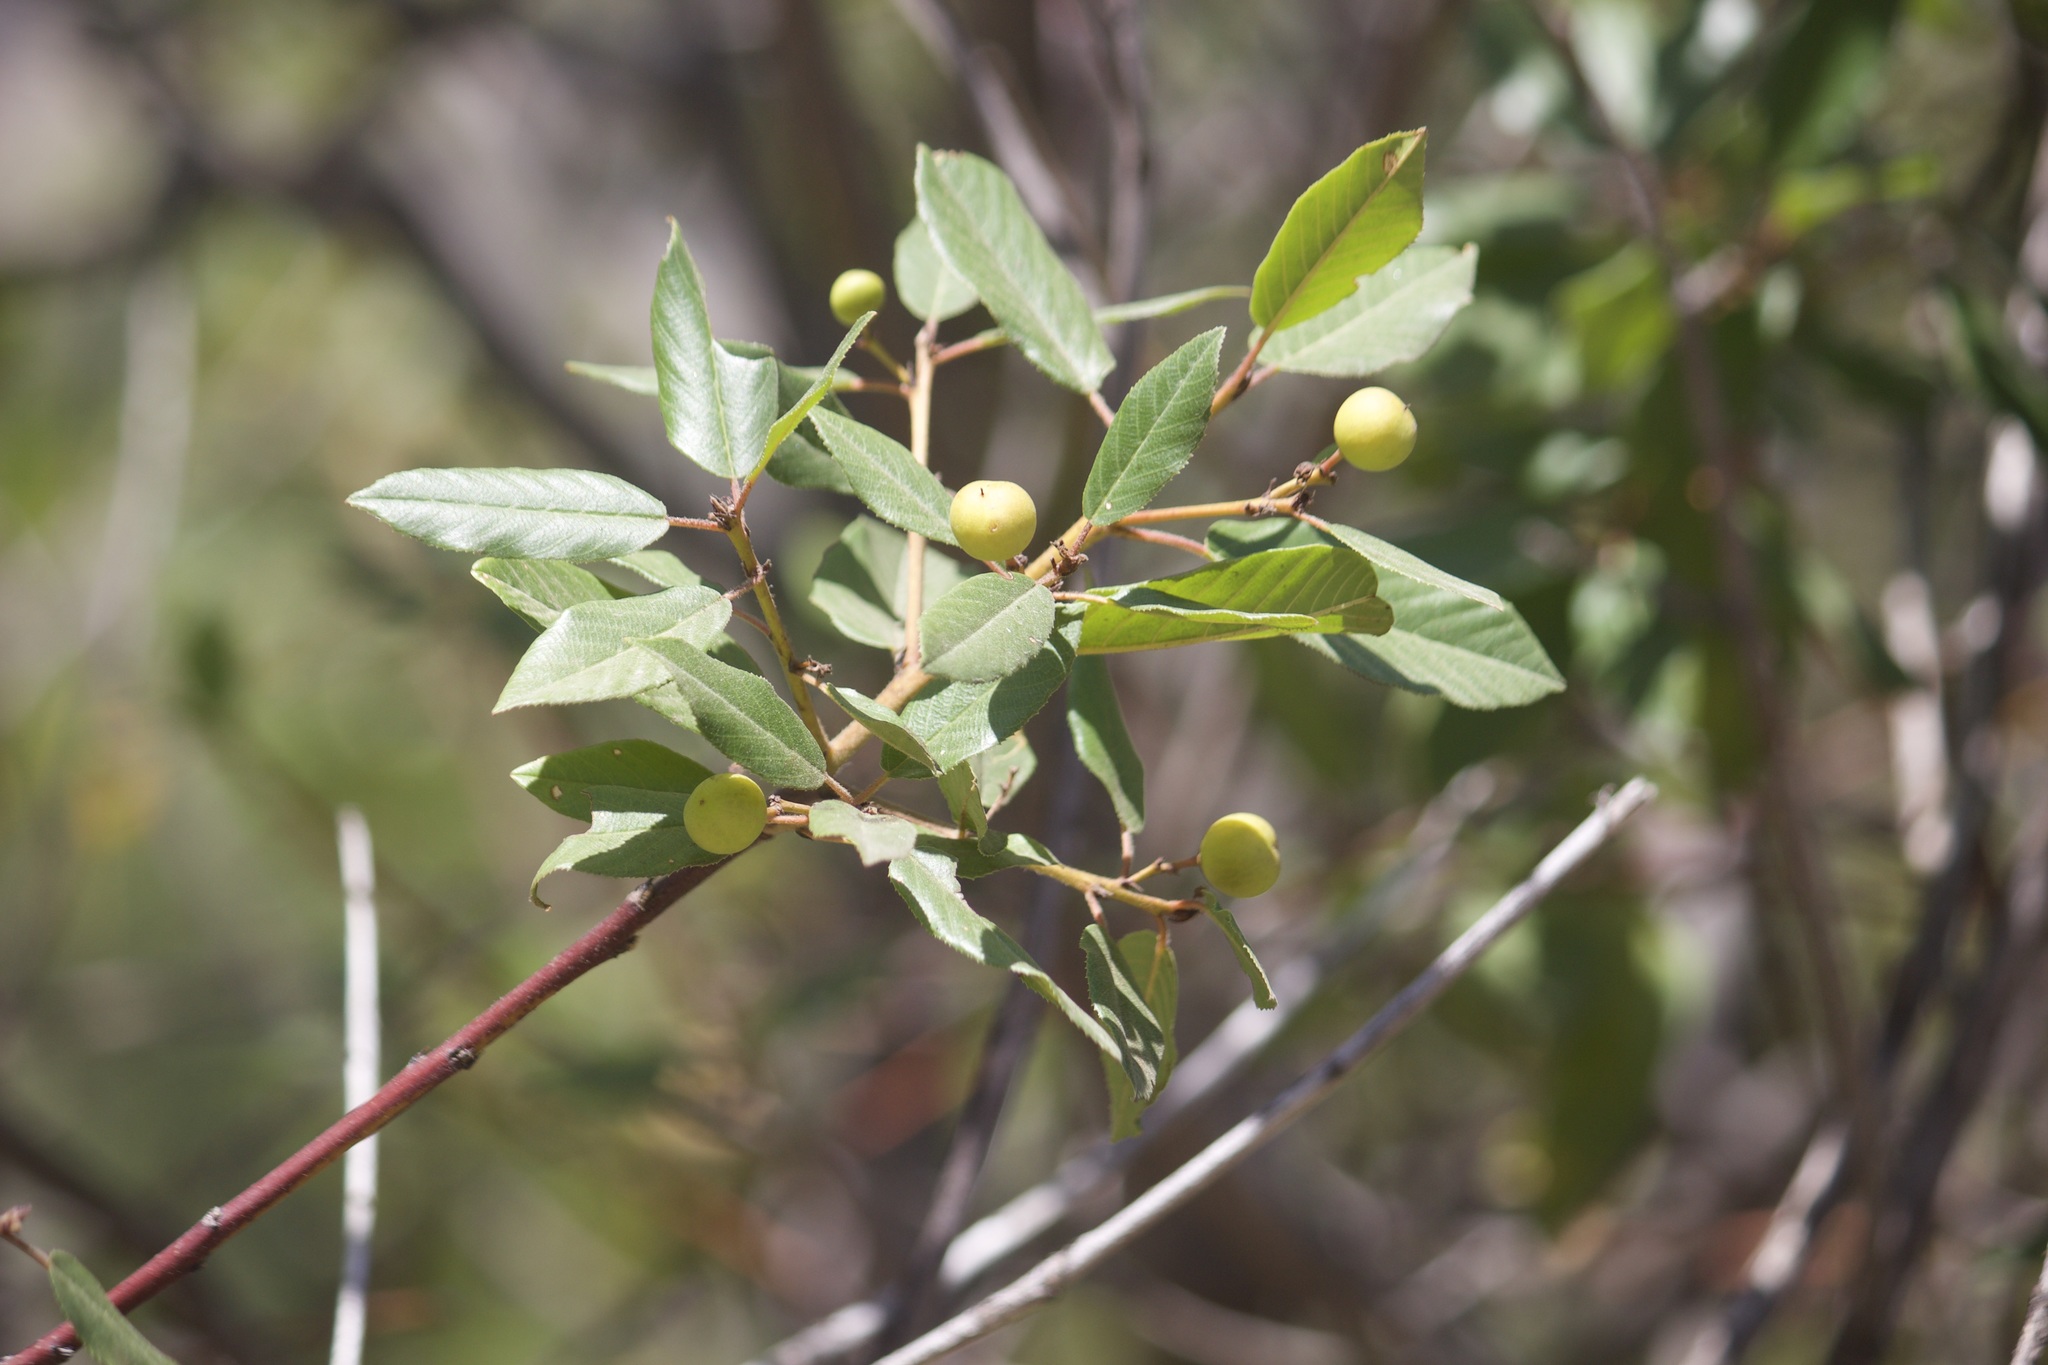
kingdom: Plantae
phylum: Tracheophyta
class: Magnoliopsida
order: Rosales
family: Rhamnaceae
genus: Frangula
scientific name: Frangula californica
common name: California buckthorn
